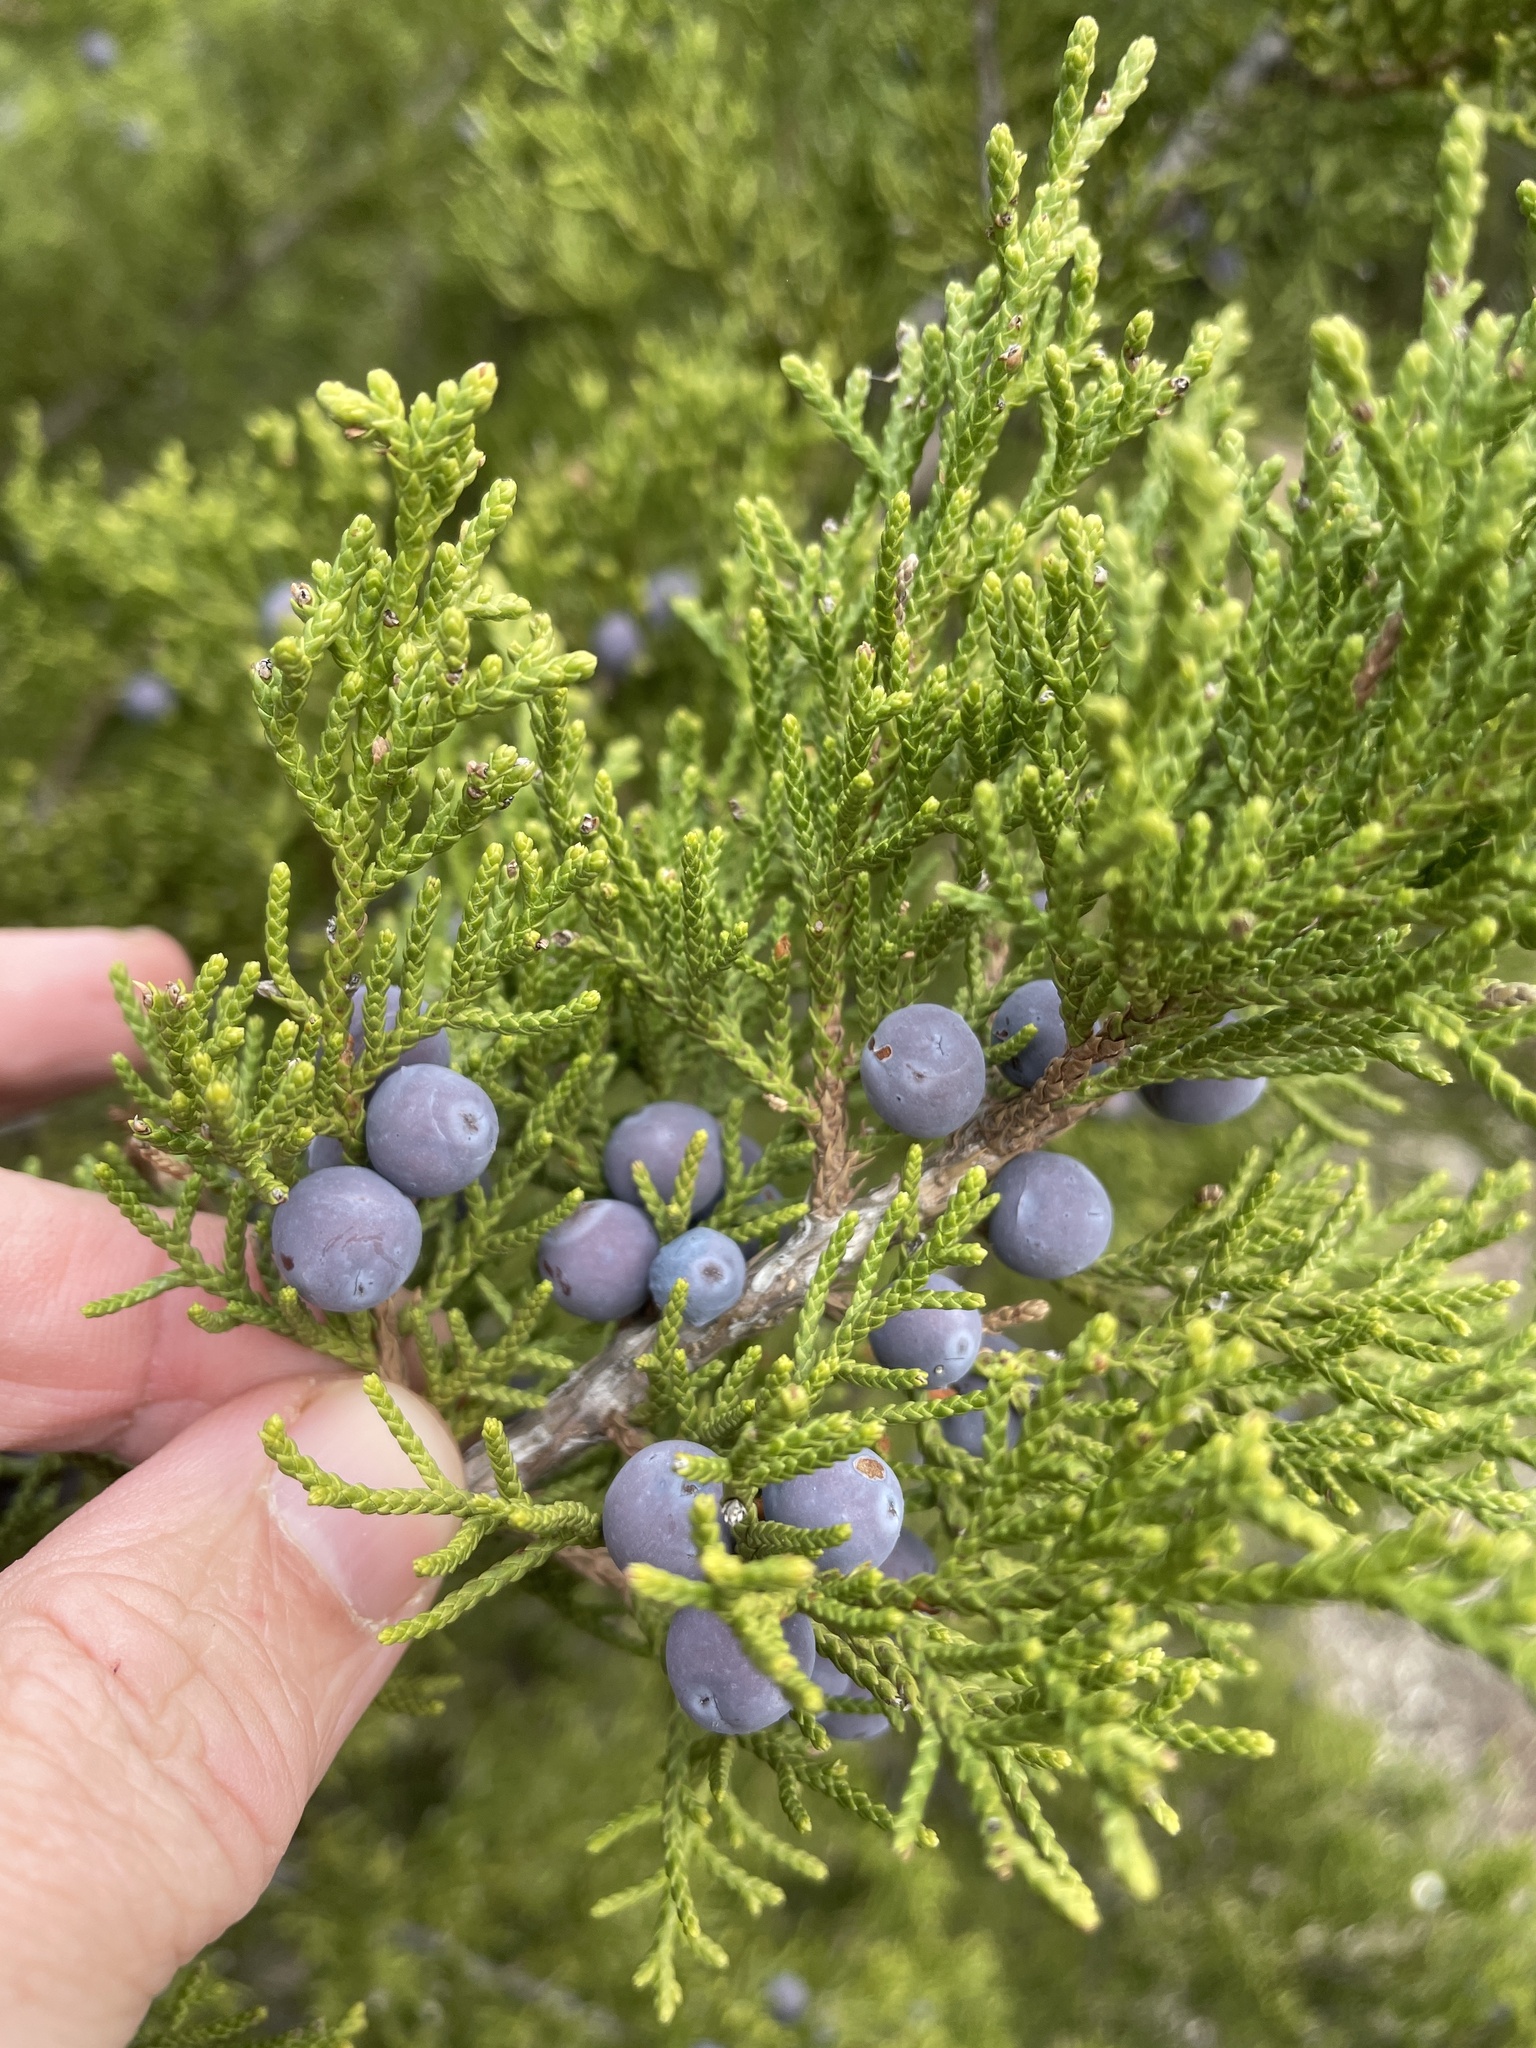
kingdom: Plantae
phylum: Tracheophyta
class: Pinopsida
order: Pinales
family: Cupressaceae
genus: Juniperus
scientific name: Juniperus ashei
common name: Mexican juniper
